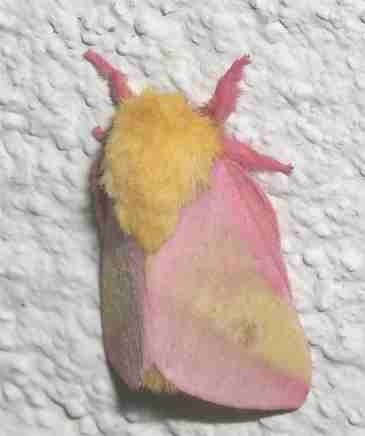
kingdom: Animalia
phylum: Arthropoda
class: Insecta
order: Lepidoptera
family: Saturniidae
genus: Dryocampa
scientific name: Dryocampa rubicunda
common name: Rosy maple moth
